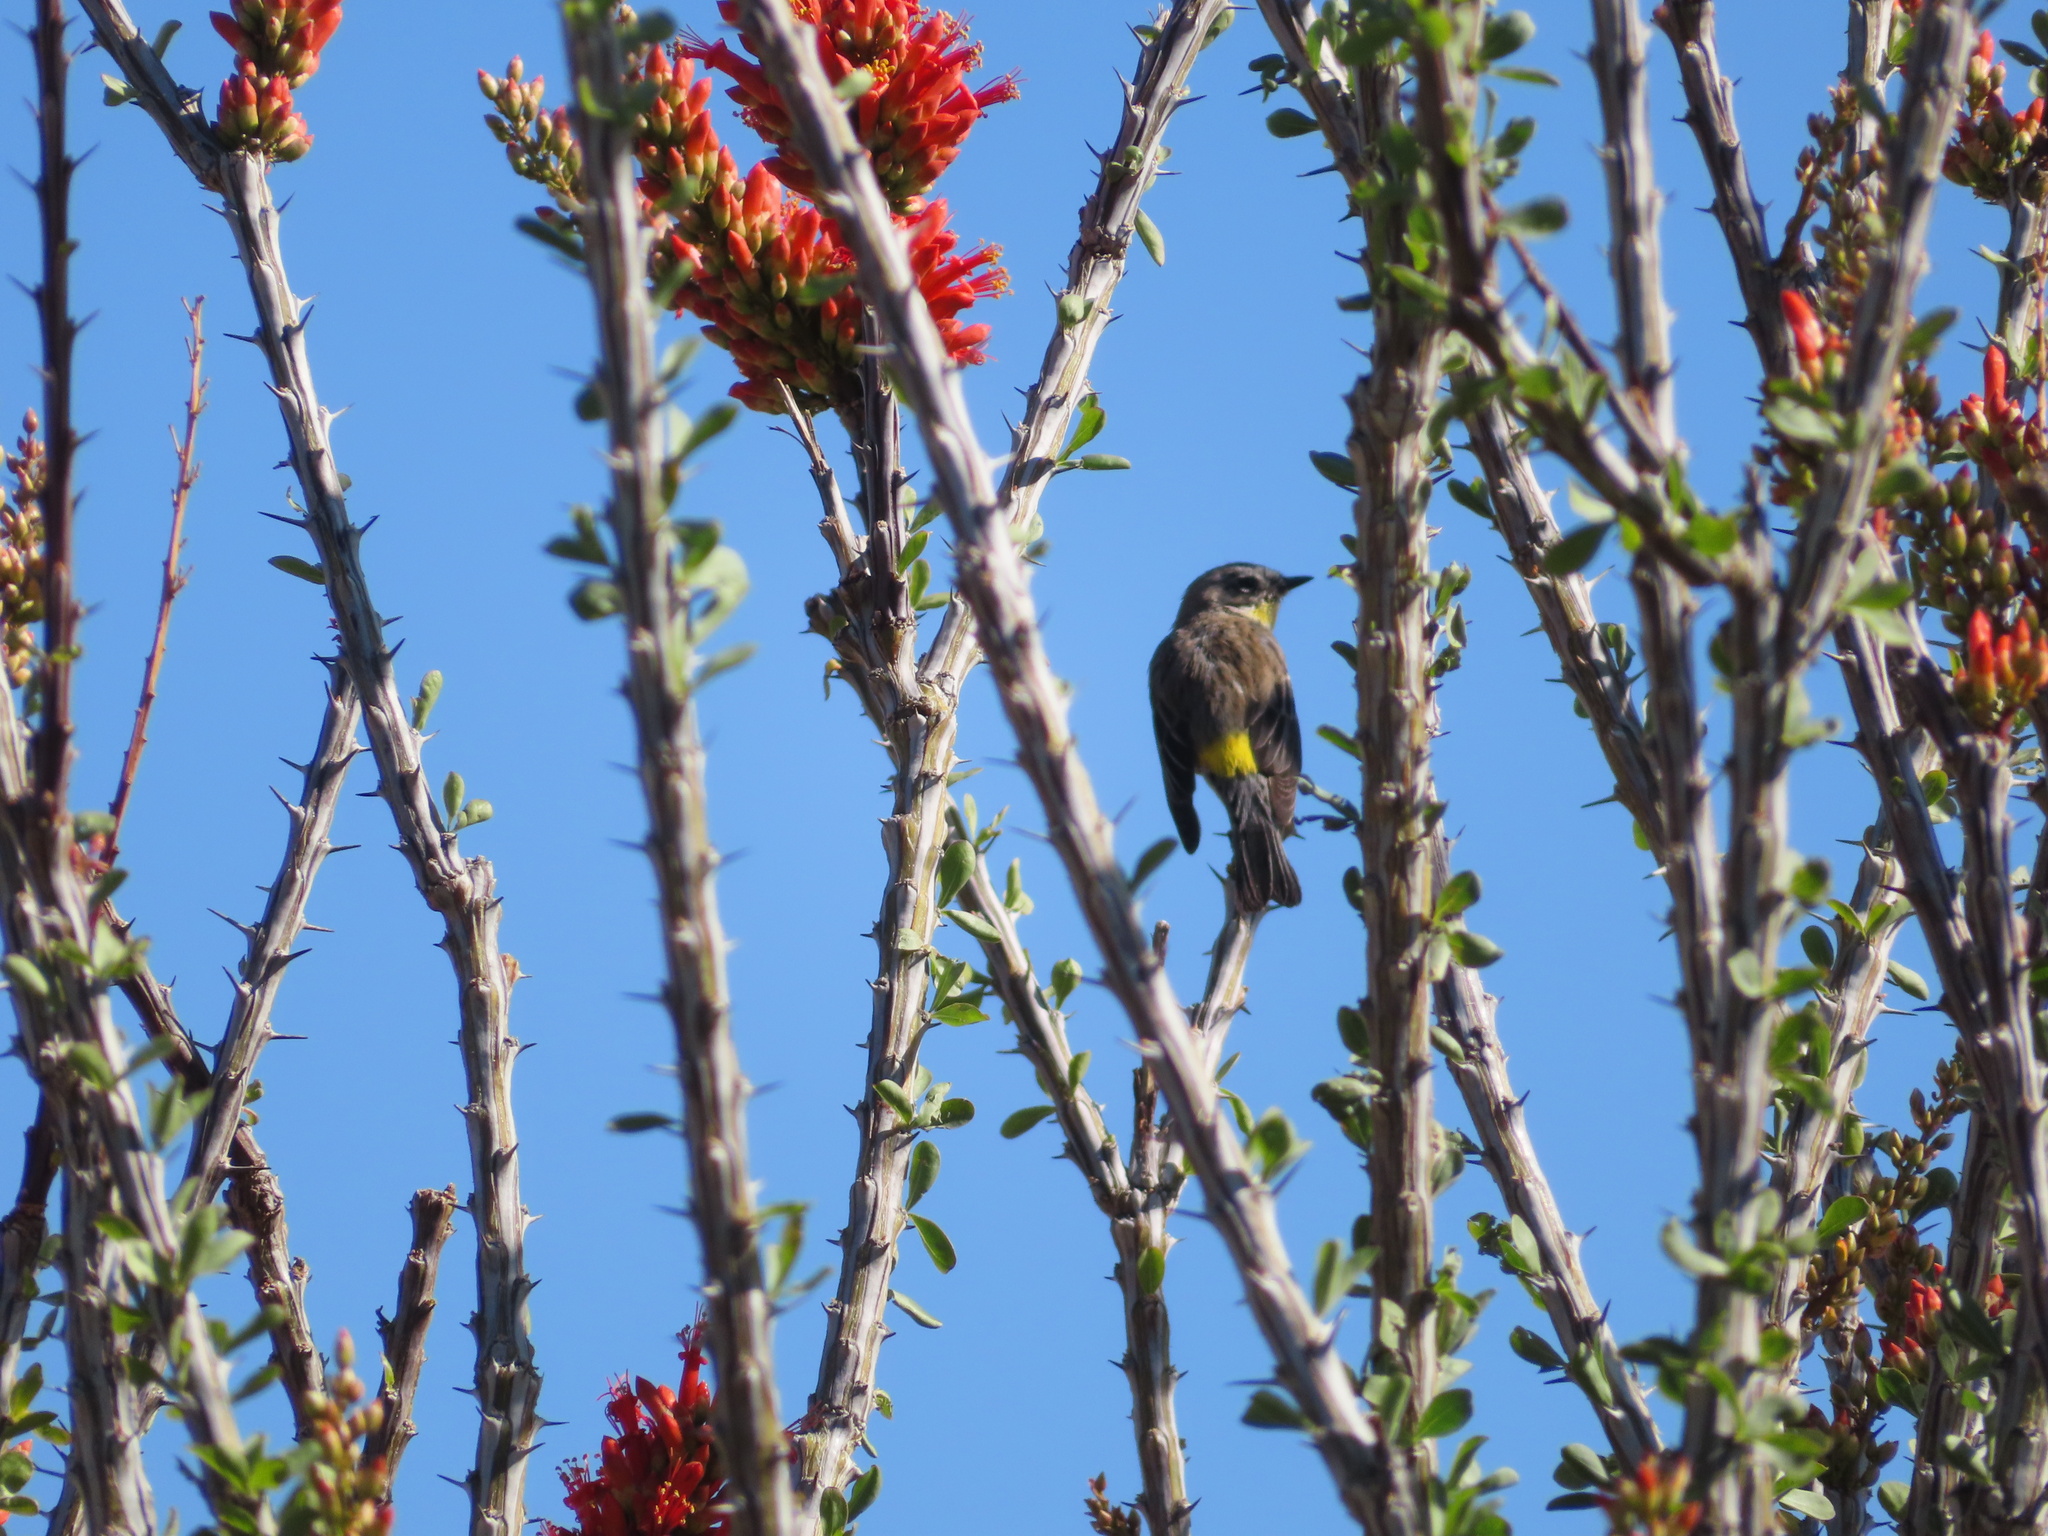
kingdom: Animalia
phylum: Chordata
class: Aves
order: Passeriformes
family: Parulidae
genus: Setophaga
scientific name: Setophaga coronata
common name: Myrtle warbler
